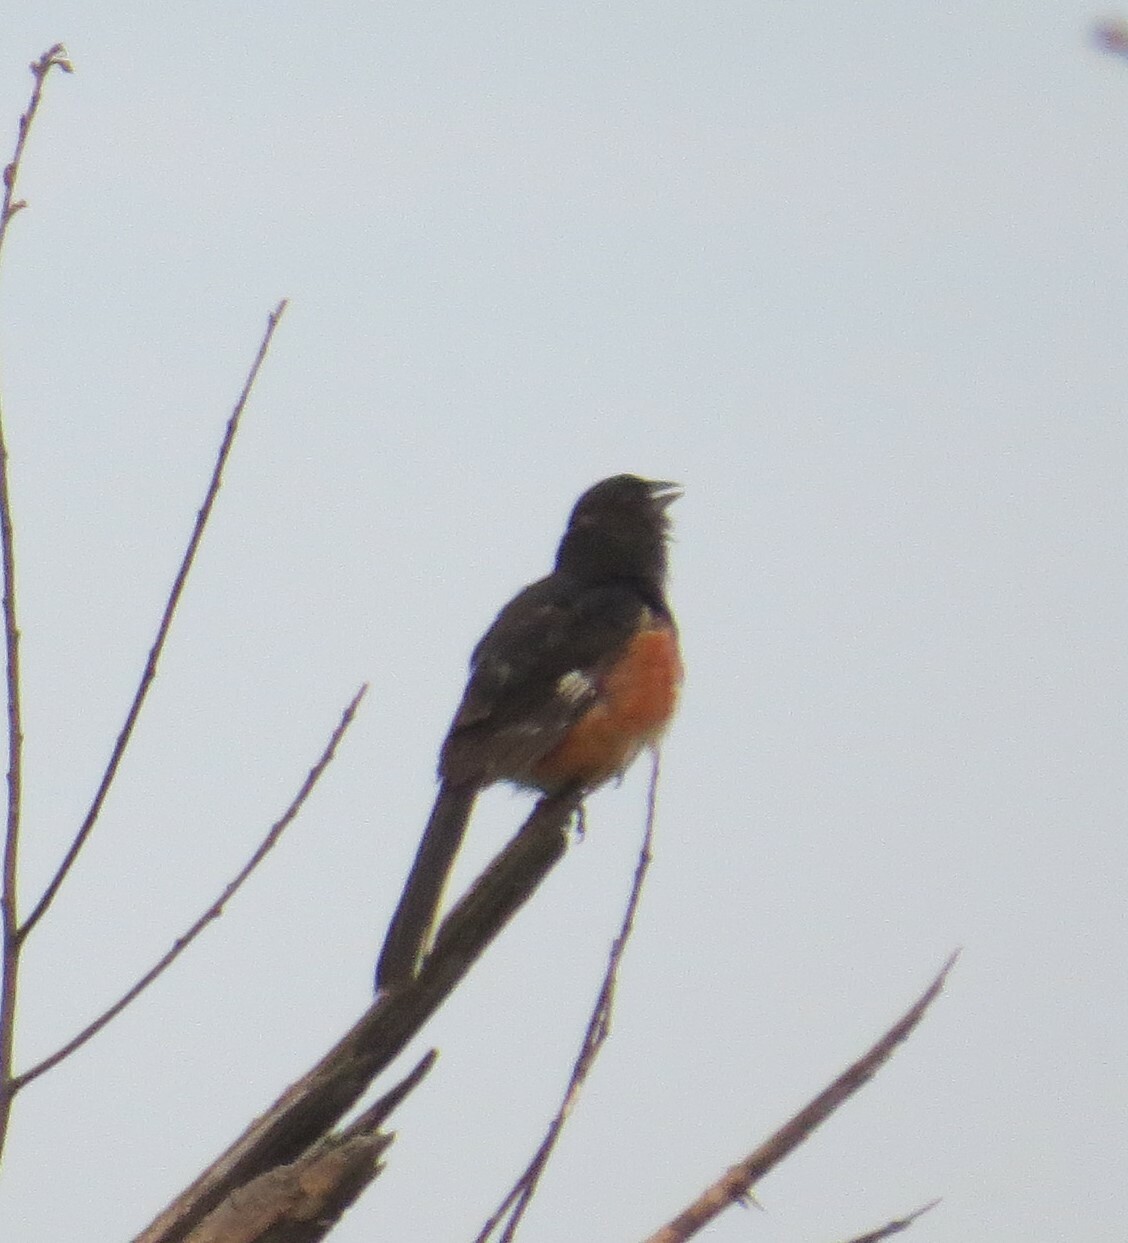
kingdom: Animalia
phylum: Chordata
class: Aves
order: Passeriformes
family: Passerellidae
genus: Pipilo
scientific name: Pipilo erythrophthalmus
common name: Eastern towhee
